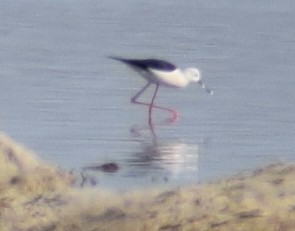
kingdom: Animalia
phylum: Chordata
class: Aves
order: Charadriiformes
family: Recurvirostridae
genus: Himantopus
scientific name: Himantopus himantopus
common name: Black-winged stilt
